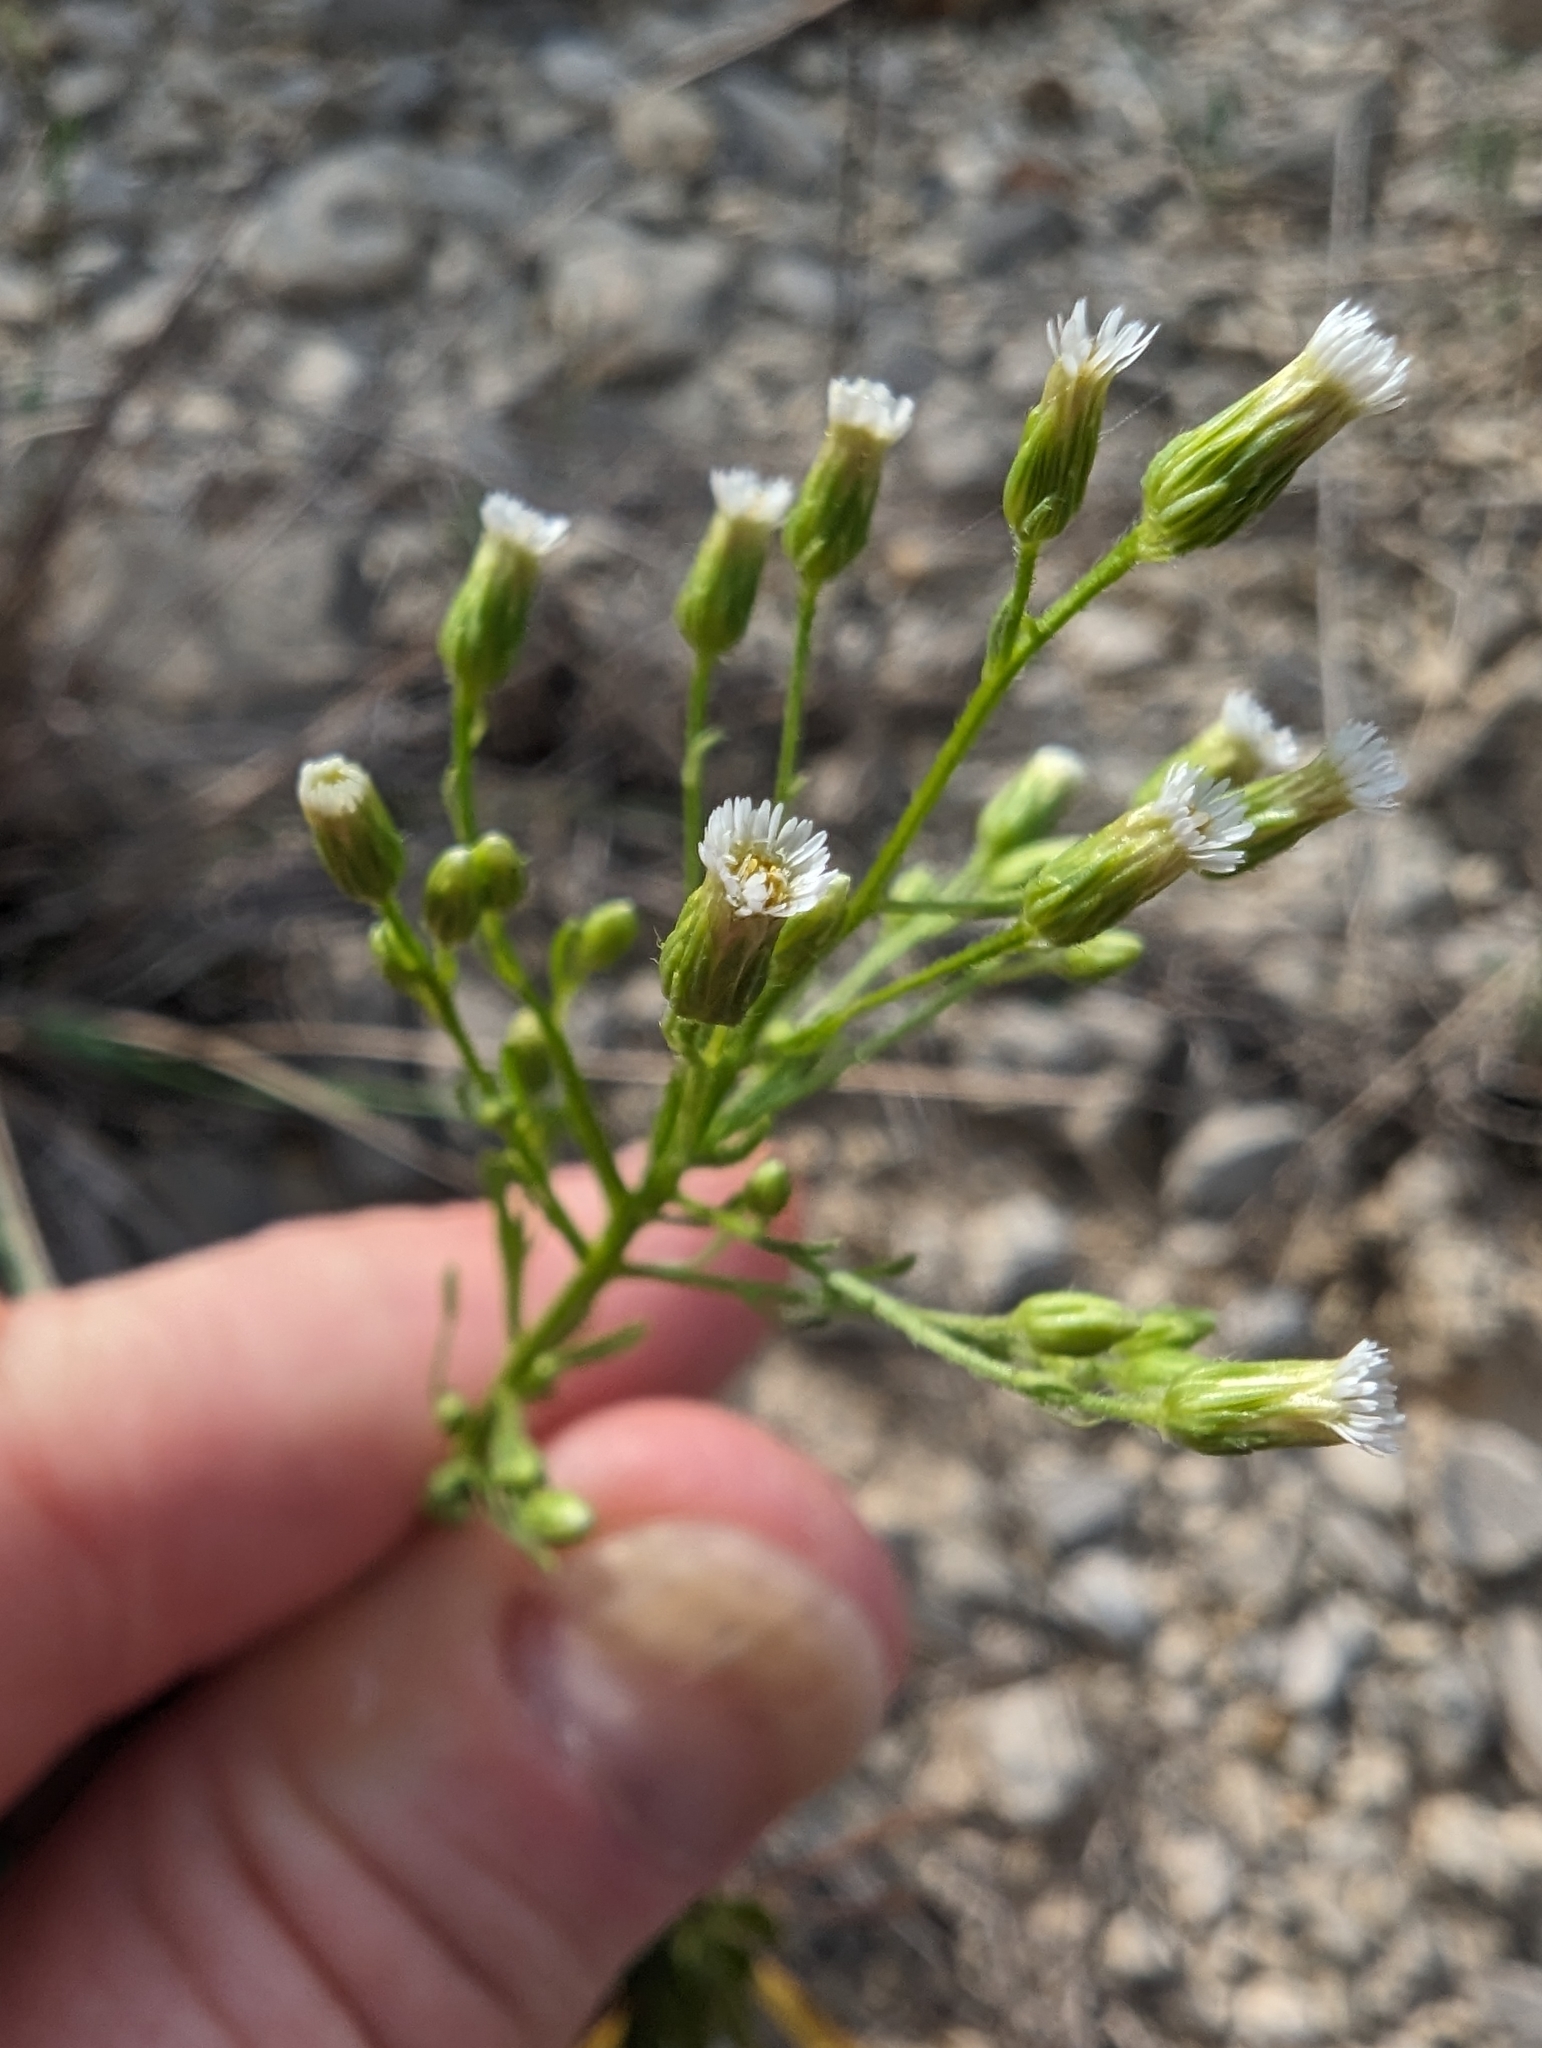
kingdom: Plantae
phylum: Tracheophyta
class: Magnoliopsida
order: Asterales
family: Asteraceae
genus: Erigeron
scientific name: Erigeron canadensis
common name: Canadian fleabane
